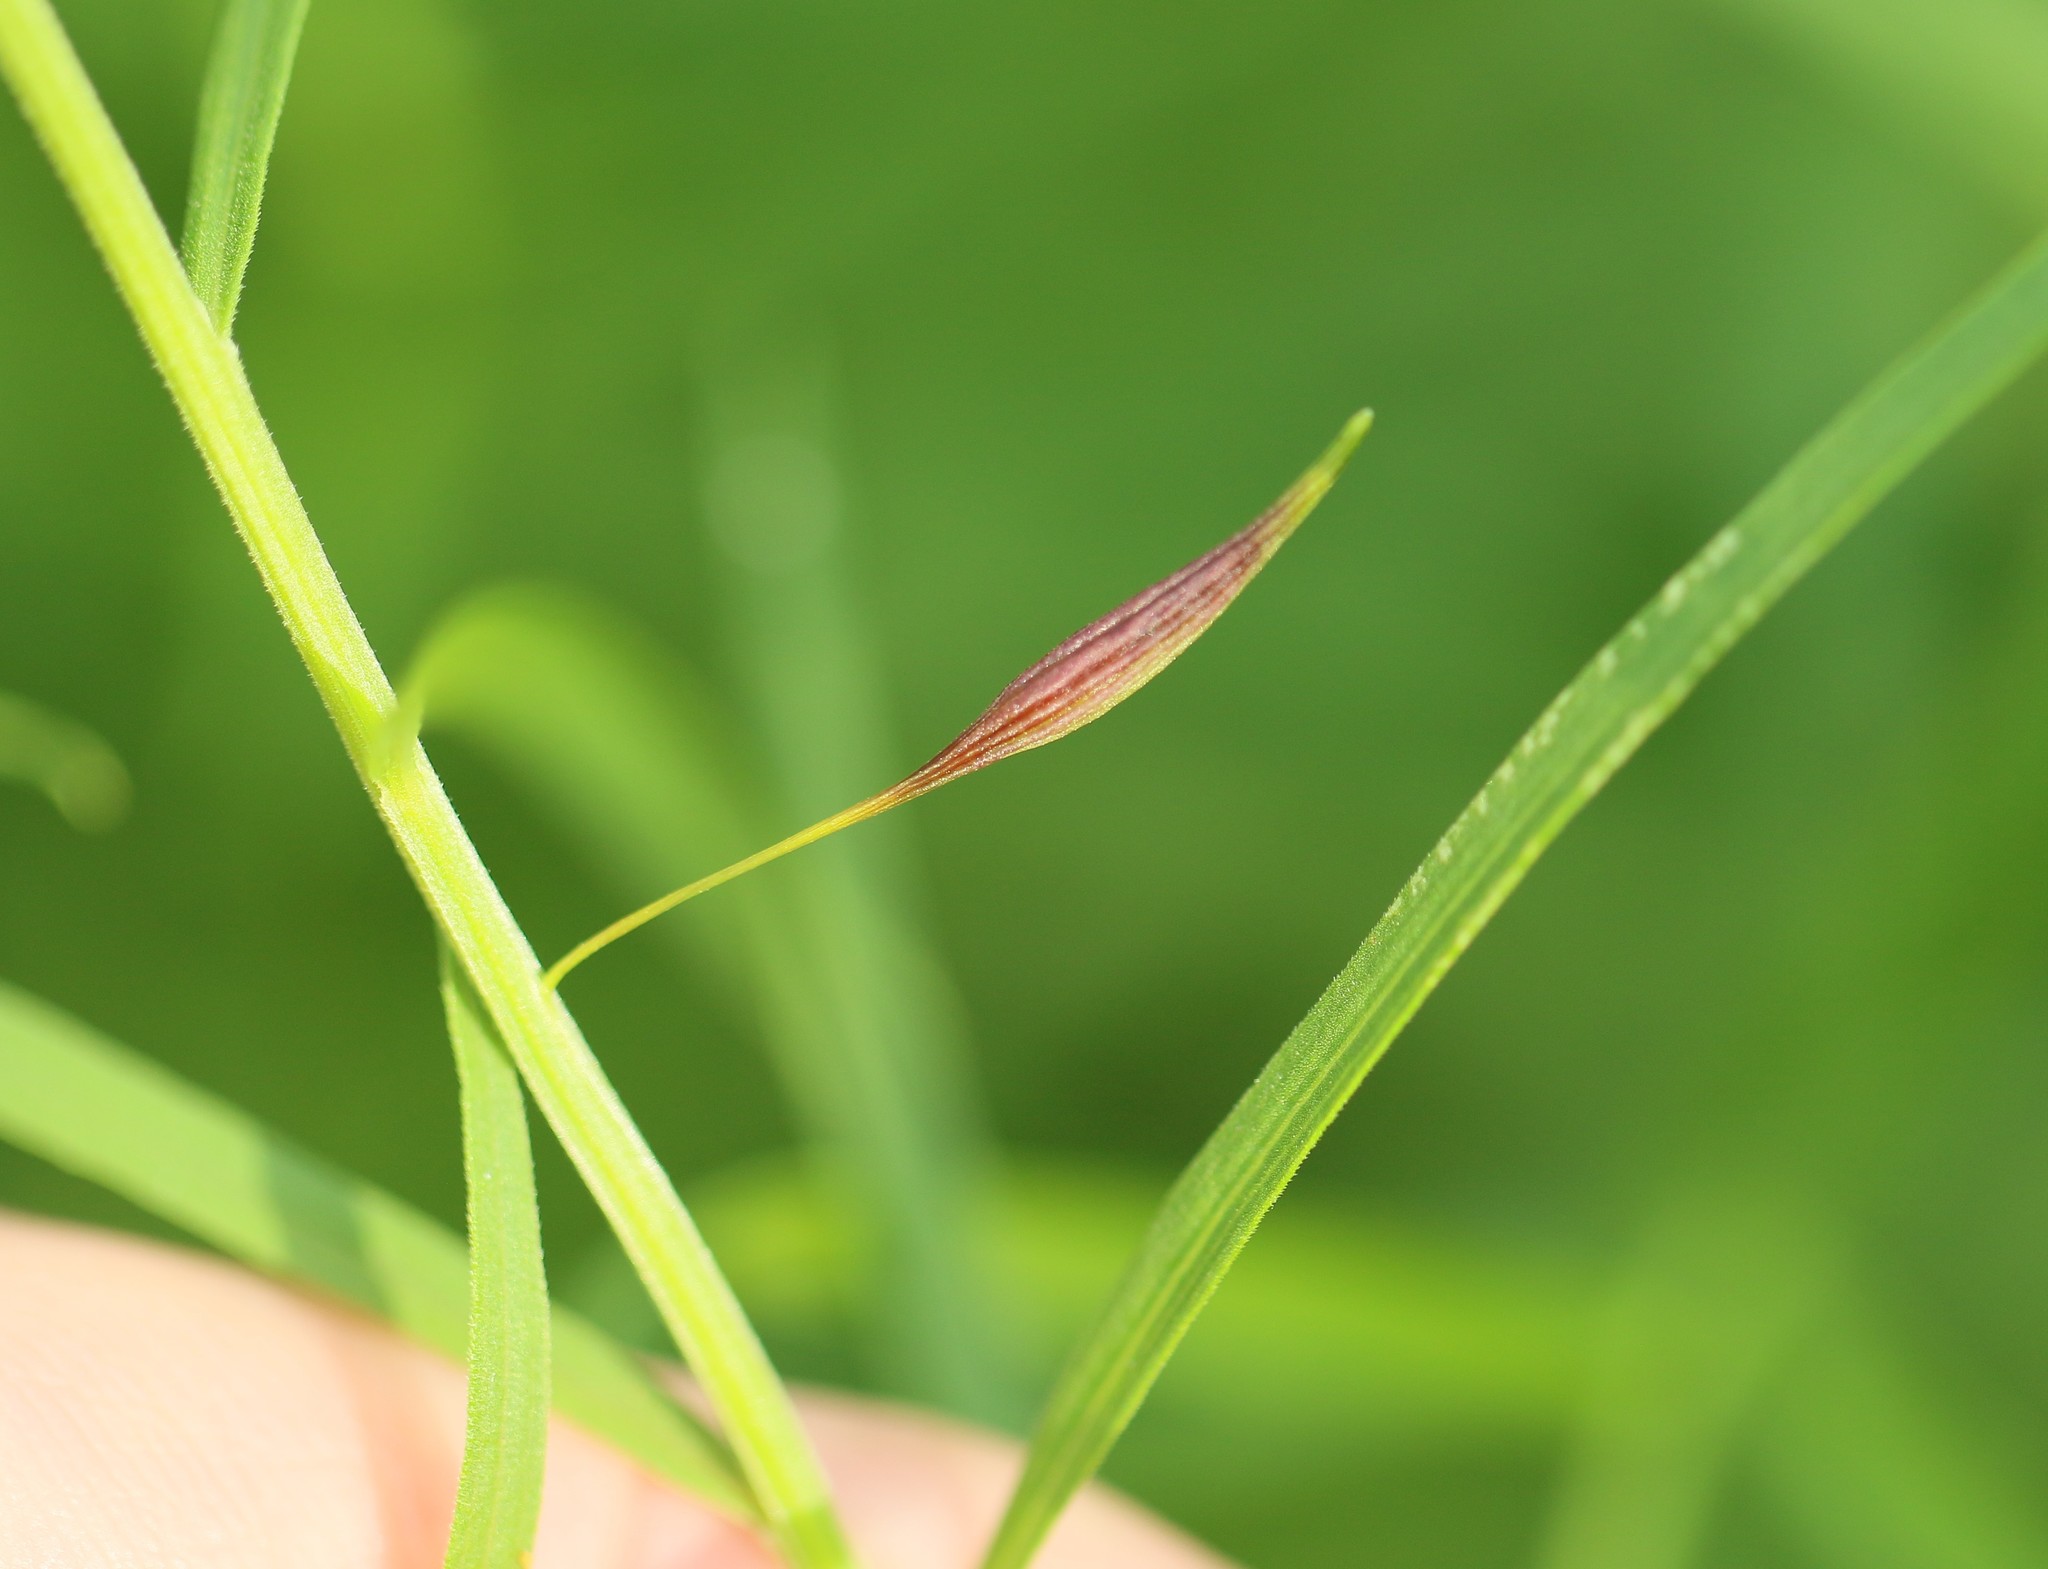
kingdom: Animalia
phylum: Arthropoda
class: Insecta
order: Diptera
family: Cecidomyiidae
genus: Rhopalomyia
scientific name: Rhopalomyia pedicellata
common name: Goldentop pedicellate gall midge
